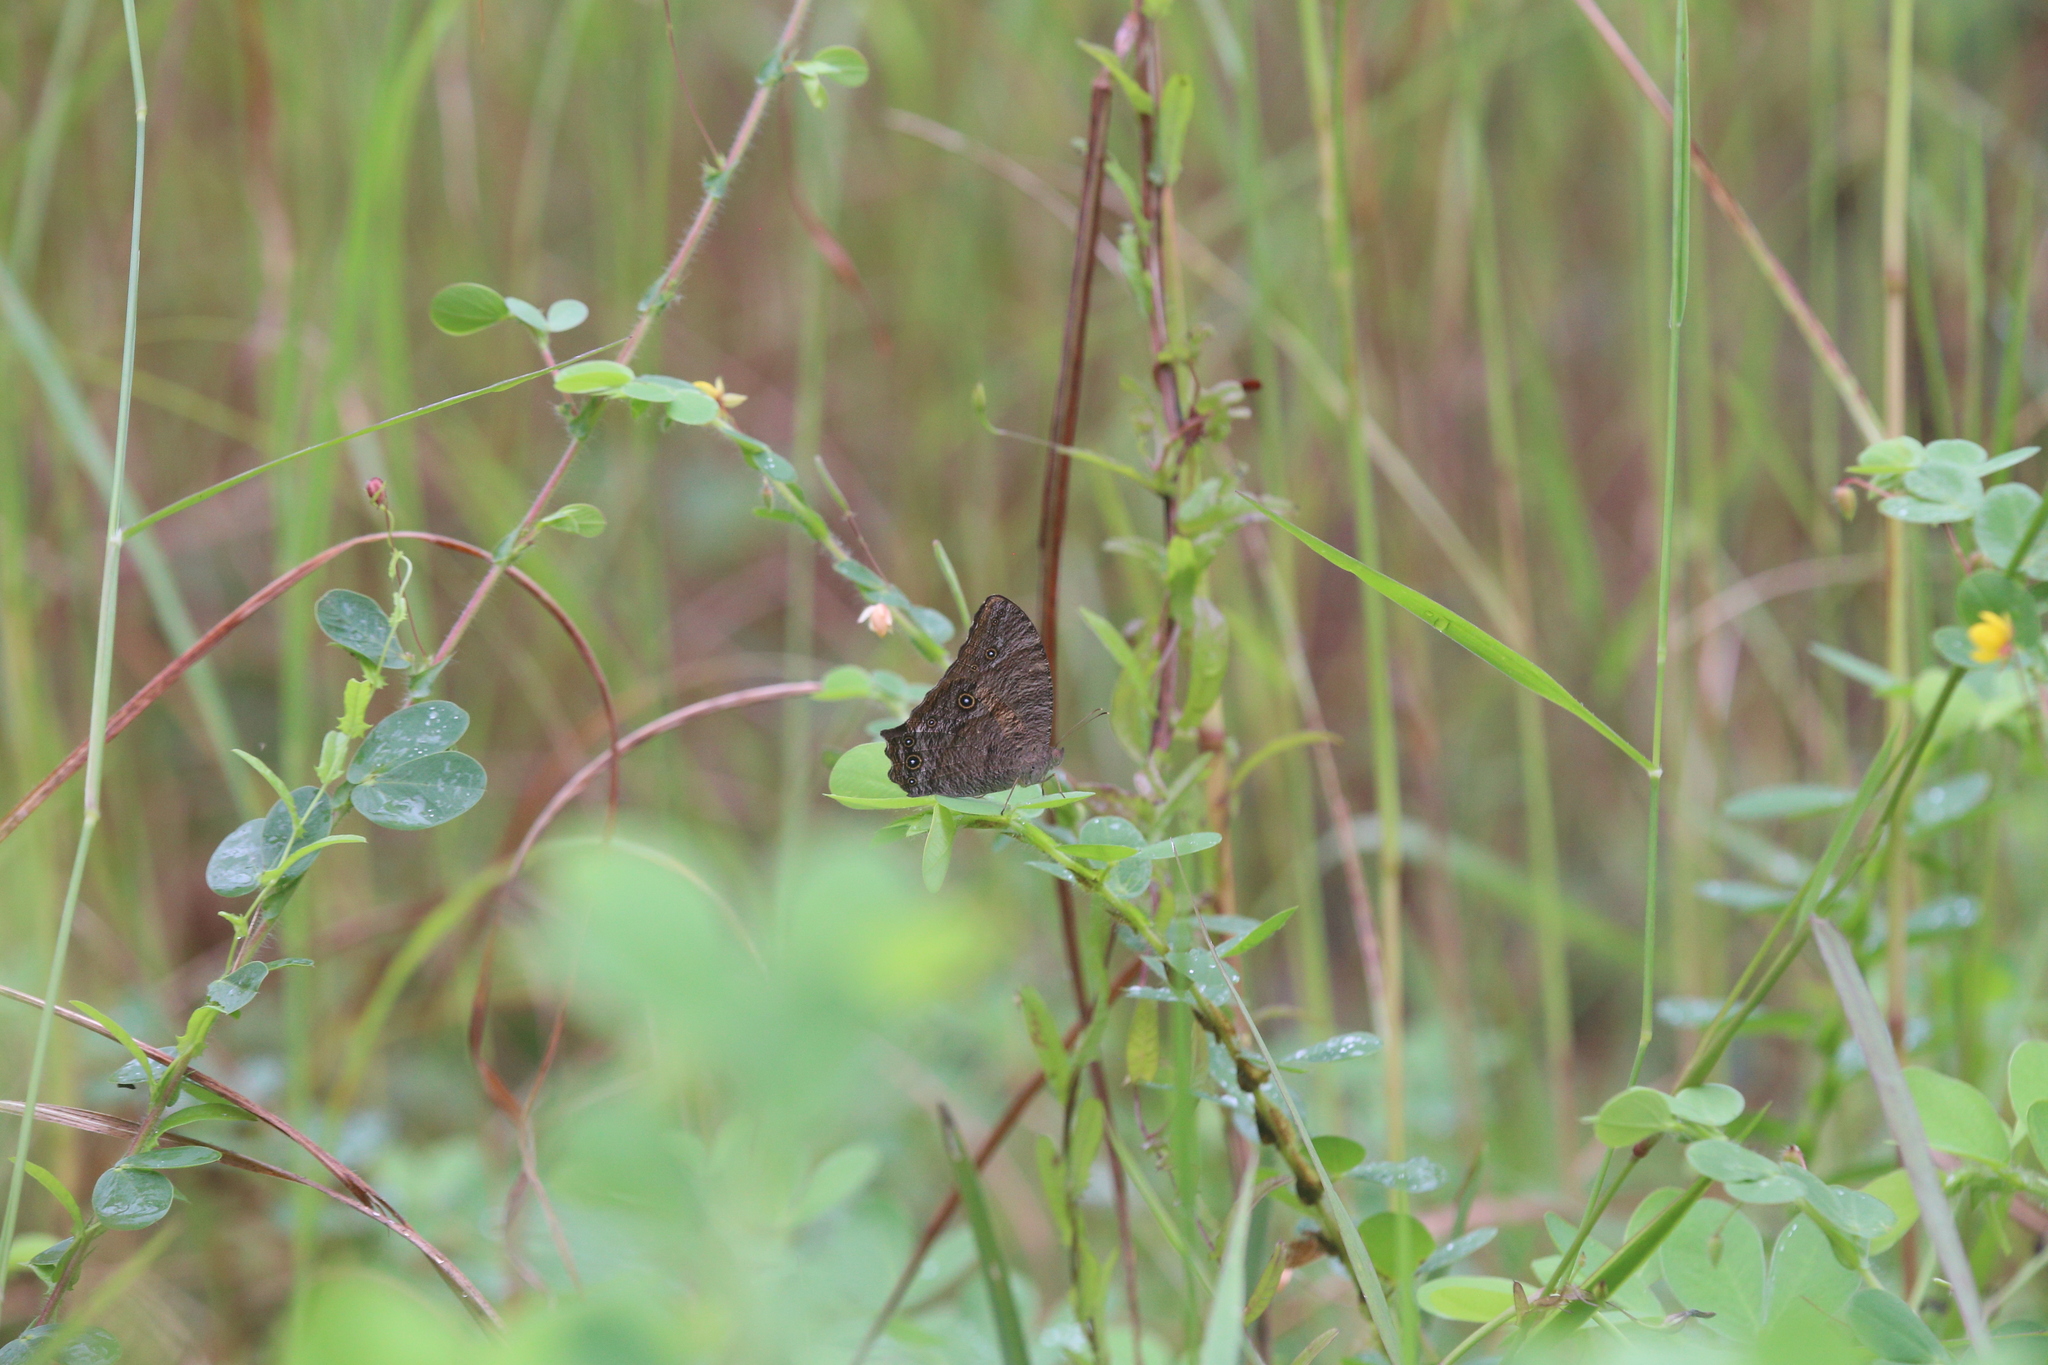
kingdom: Animalia
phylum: Arthropoda
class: Insecta
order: Lepidoptera
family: Nymphalidae
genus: Melanitis
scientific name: Melanitis leda
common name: Twilight brown
